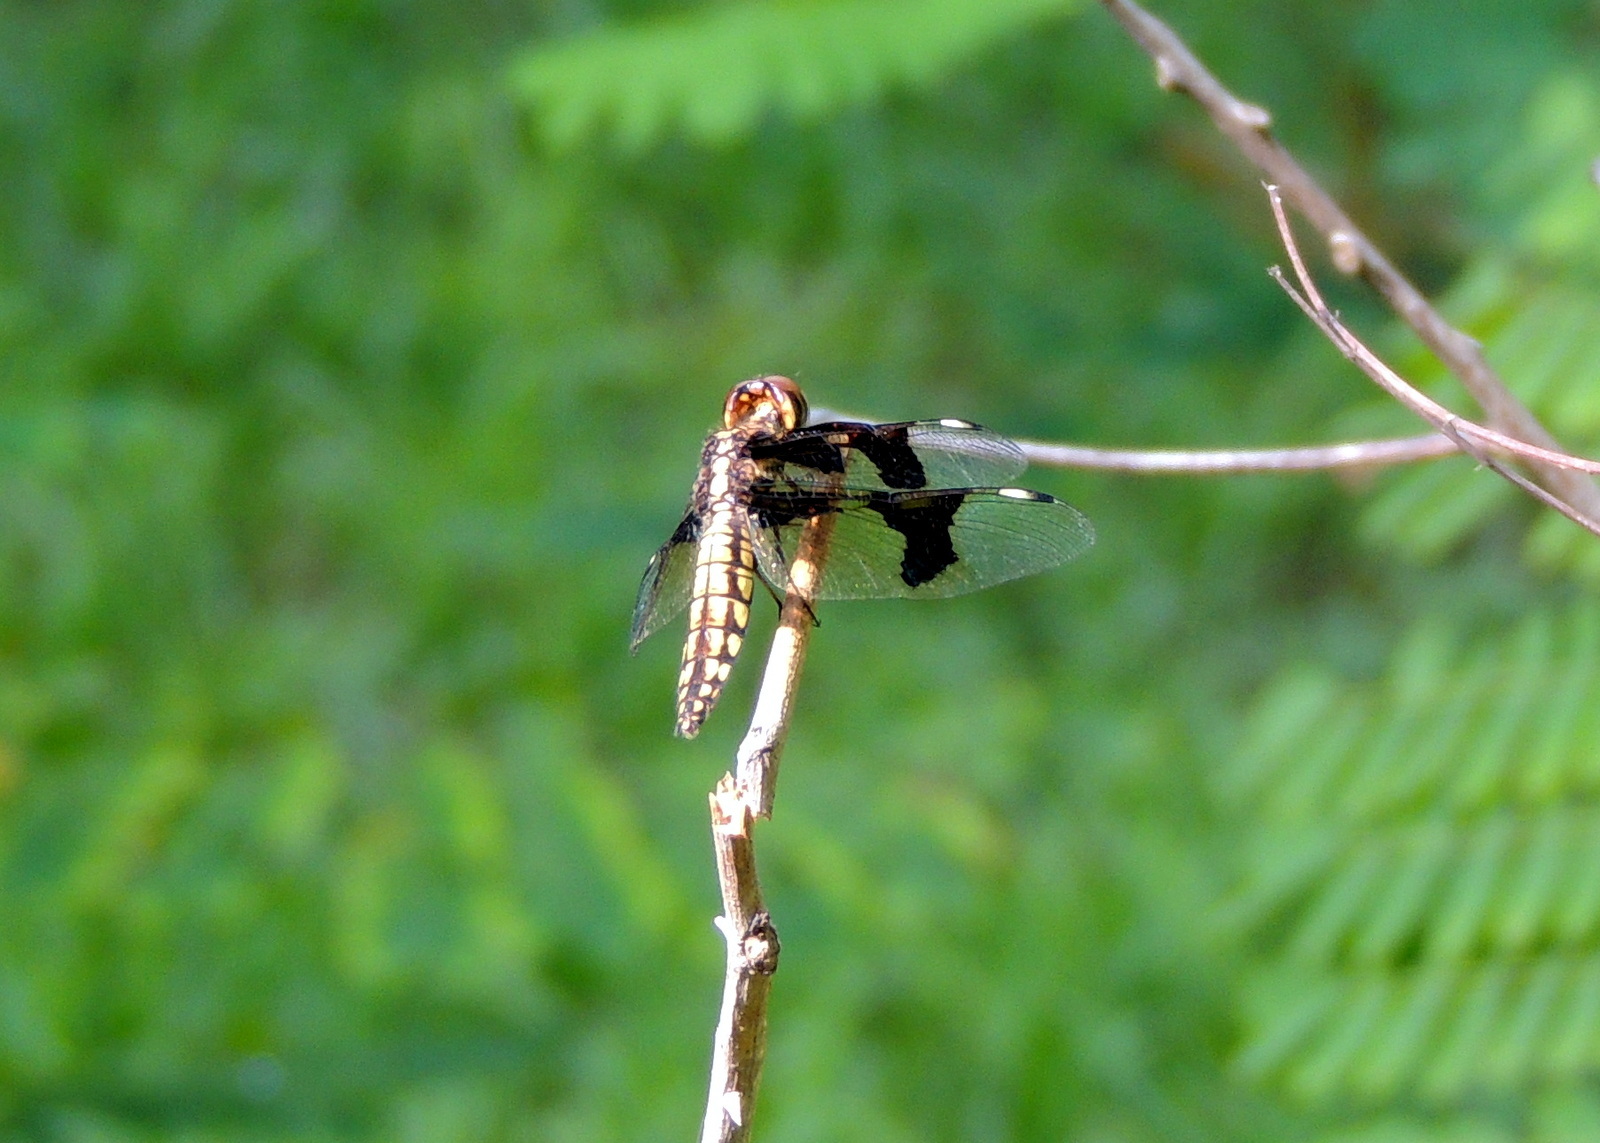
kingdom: Animalia
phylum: Arthropoda
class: Insecta
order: Odonata
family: Libellulidae
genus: Palpopleura
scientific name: Palpopleura lucia
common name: Lucia widow
